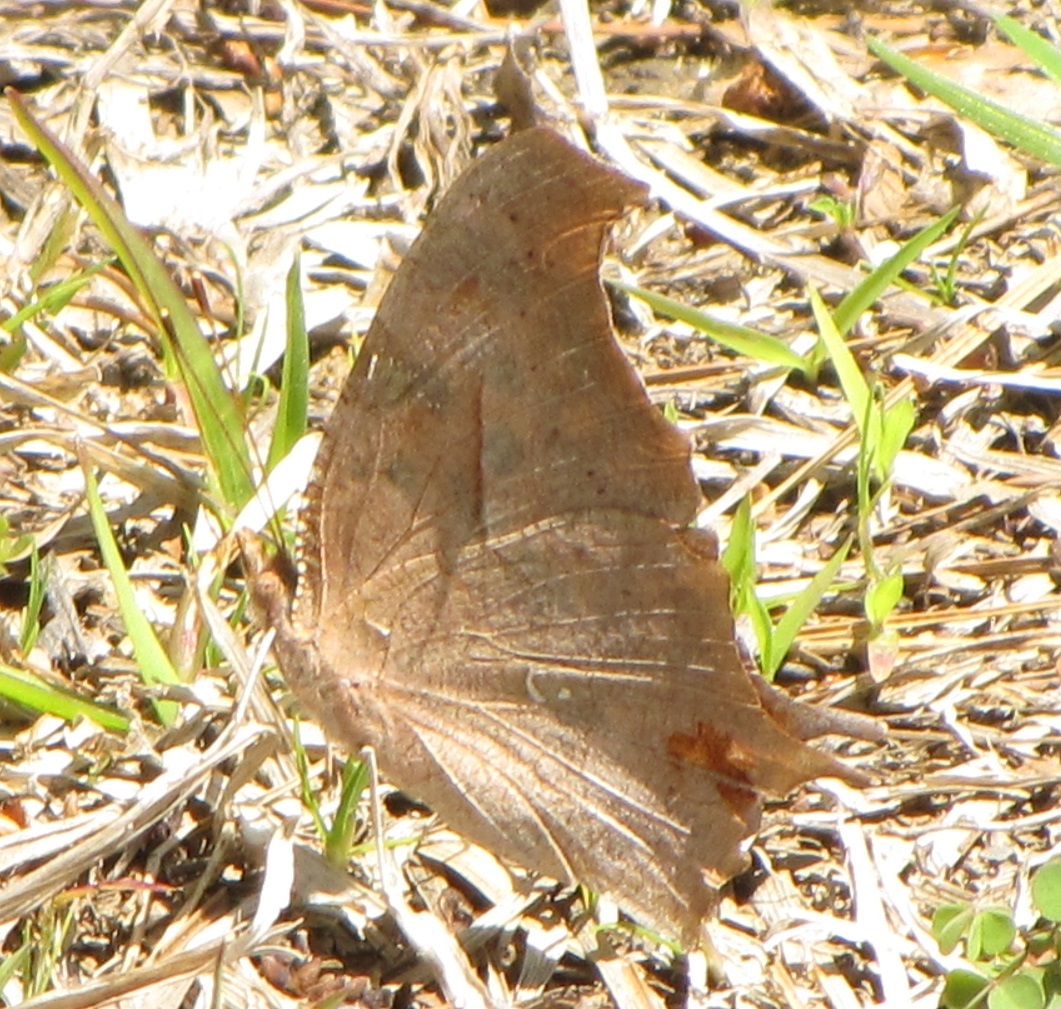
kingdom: Animalia
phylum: Arthropoda
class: Insecta
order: Lepidoptera
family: Nymphalidae
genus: Polygonia
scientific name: Polygonia interrogationis
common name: Question mark
